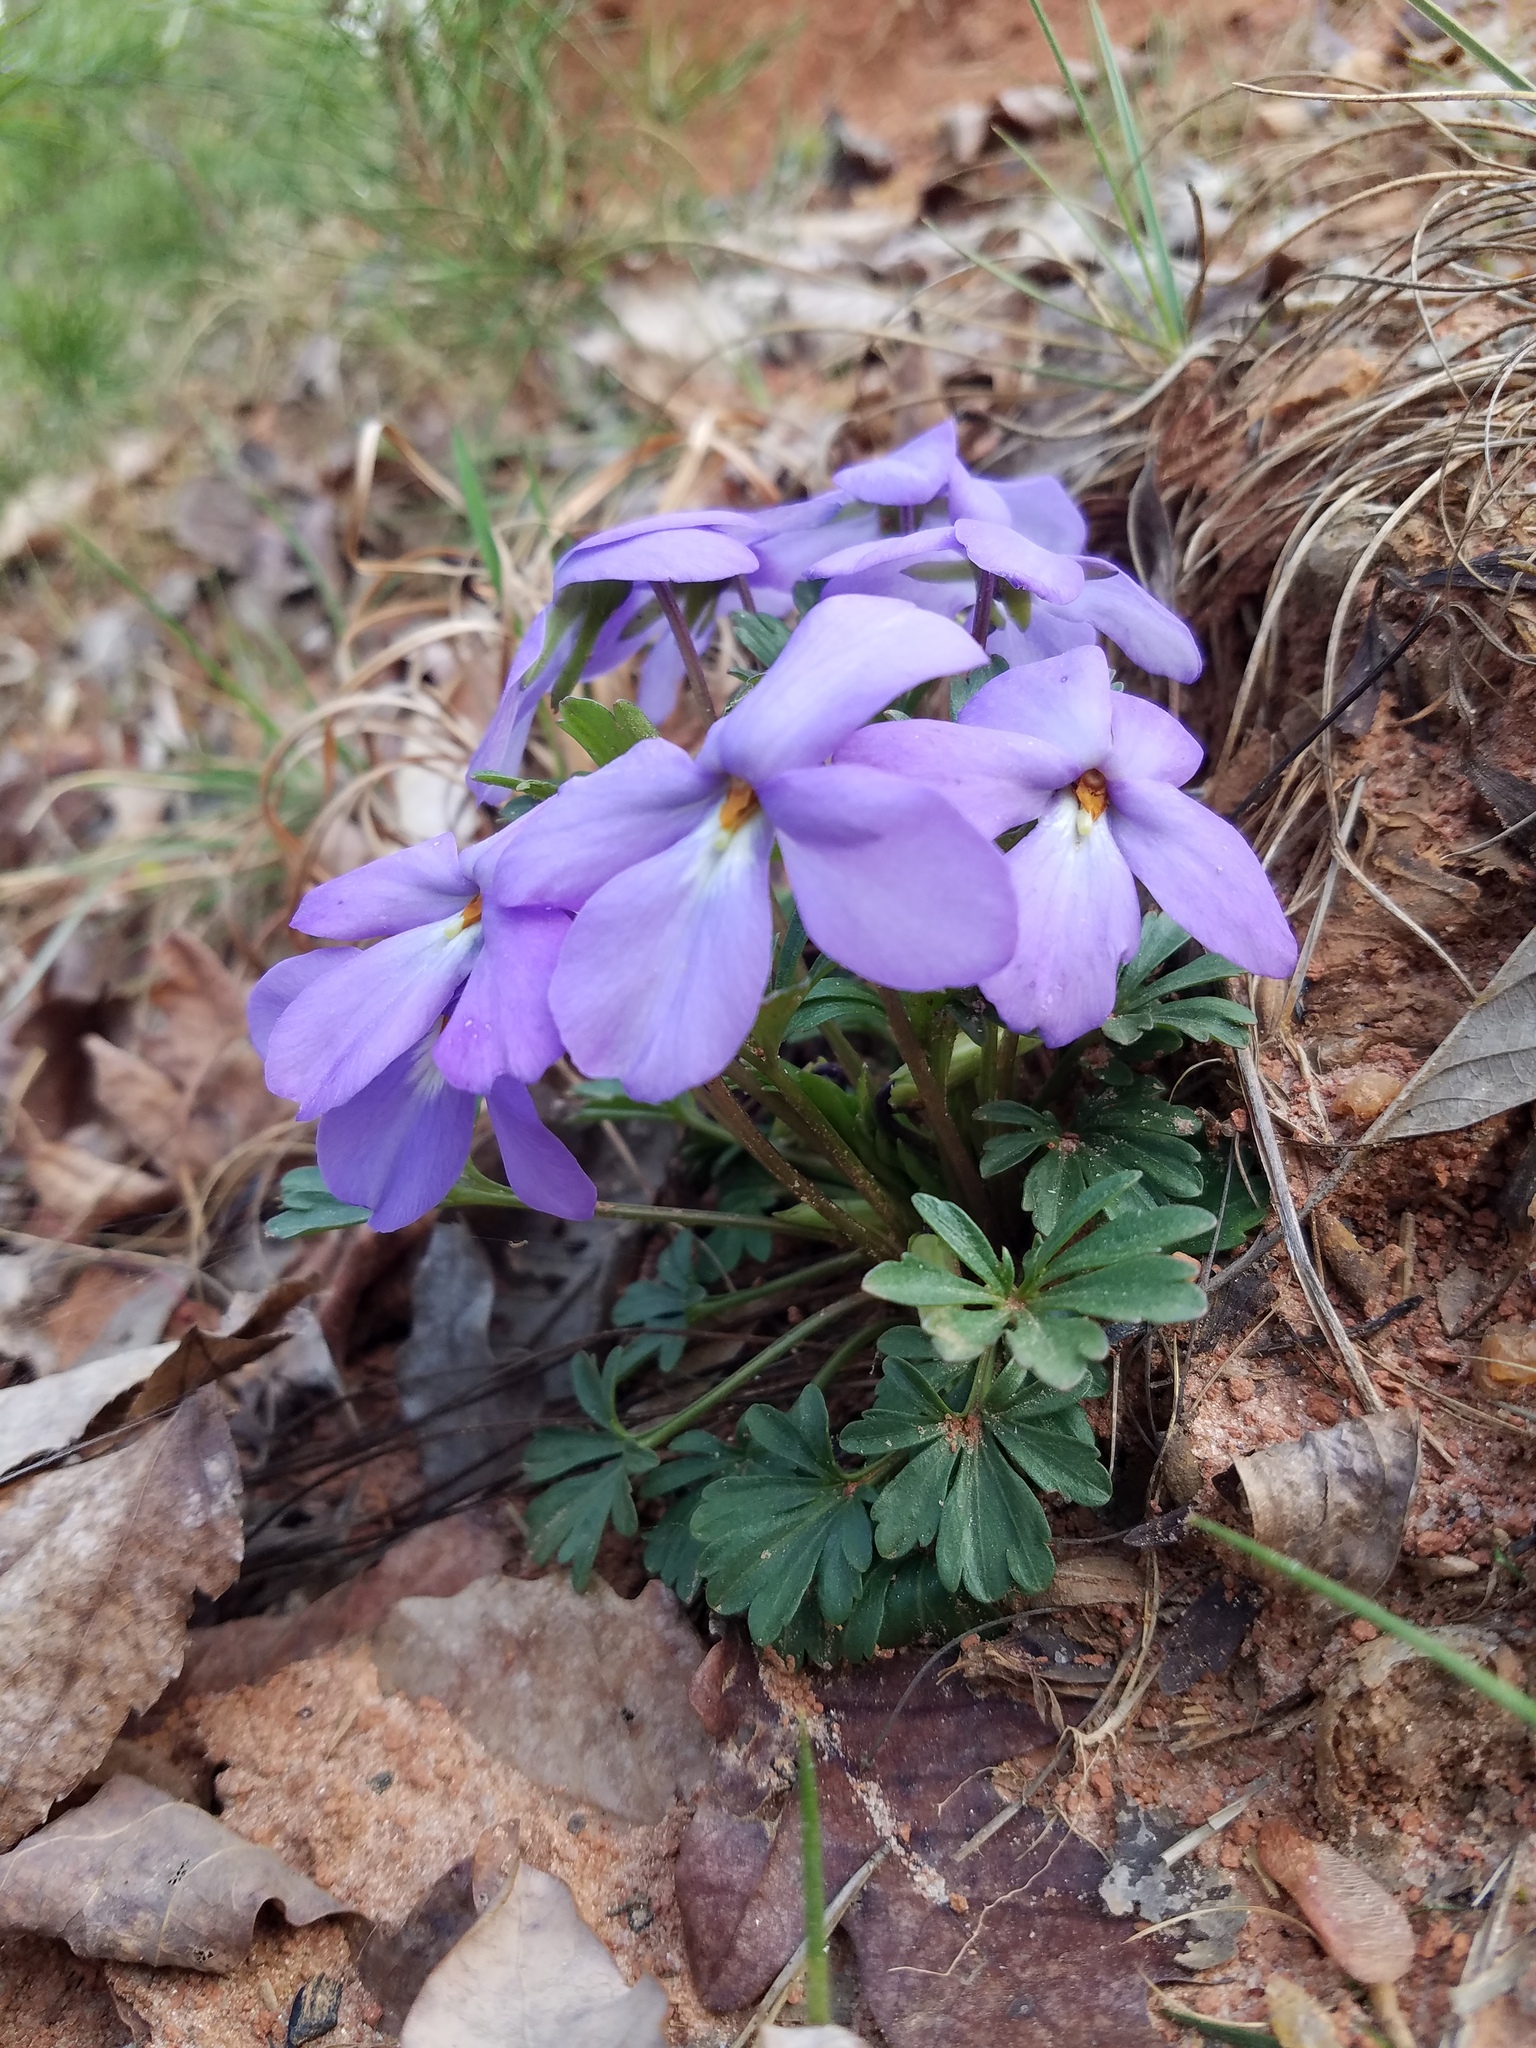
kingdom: Plantae
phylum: Tracheophyta
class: Magnoliopsida
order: Malpighiales
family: Violaceae
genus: Viola
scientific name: Viola pedata
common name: Pansy violet
